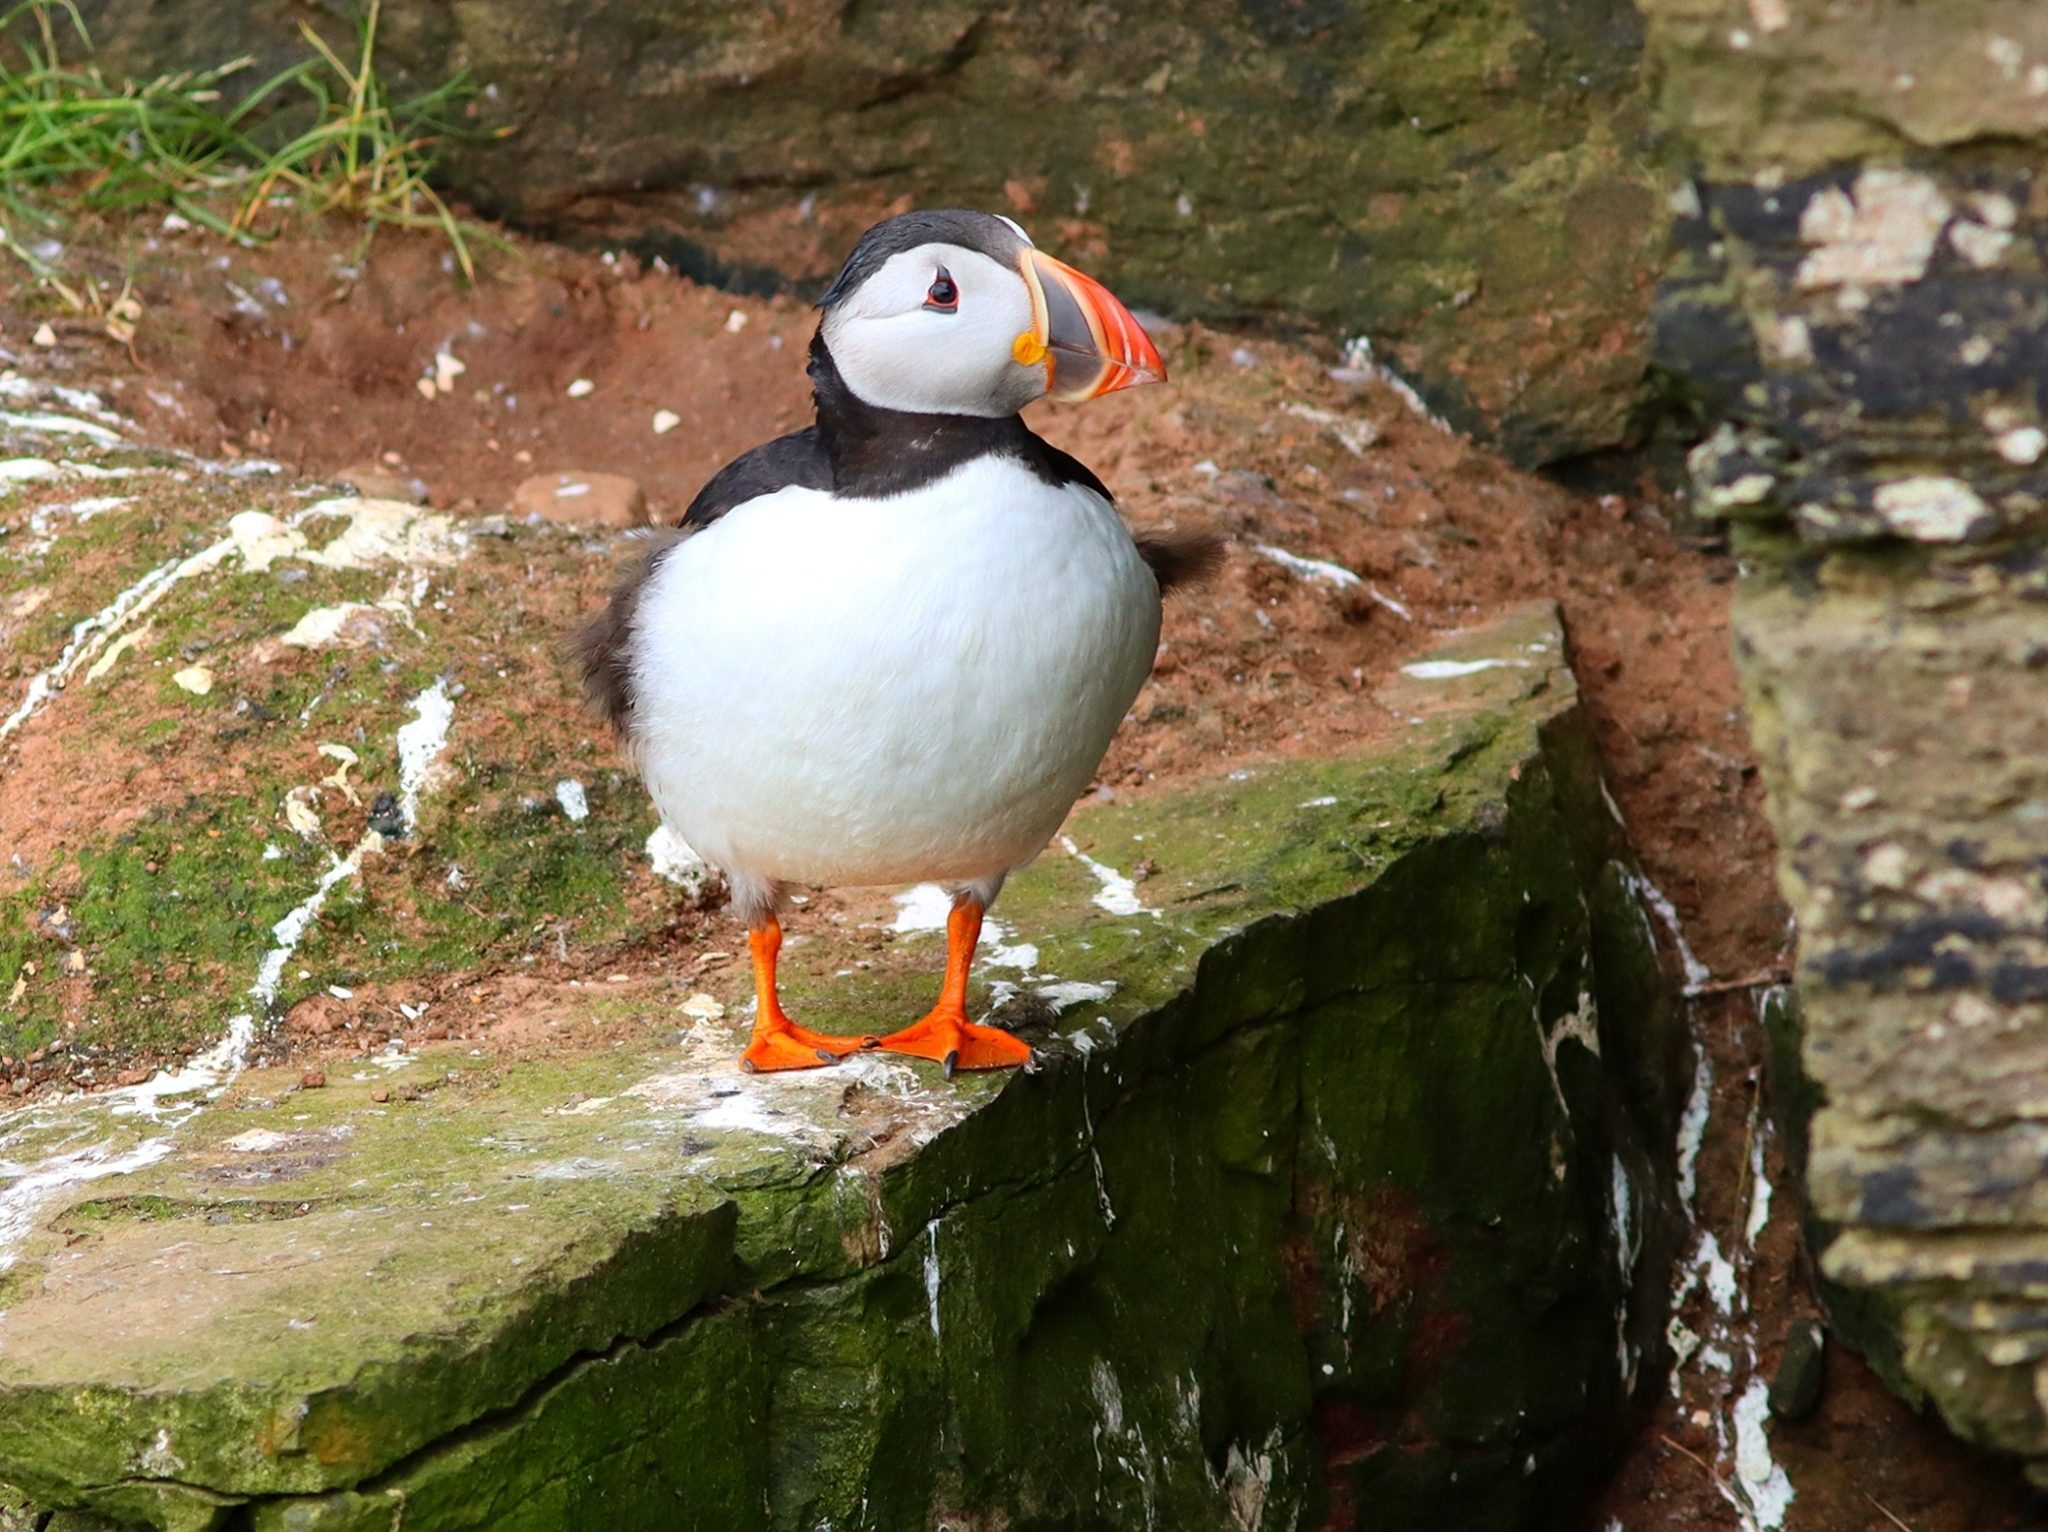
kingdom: Animalia
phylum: Chordata
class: Aves
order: Charadriiformes
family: Alcidae
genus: Fratercula
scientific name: Fratercula arctica
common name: Atlantic puffin
